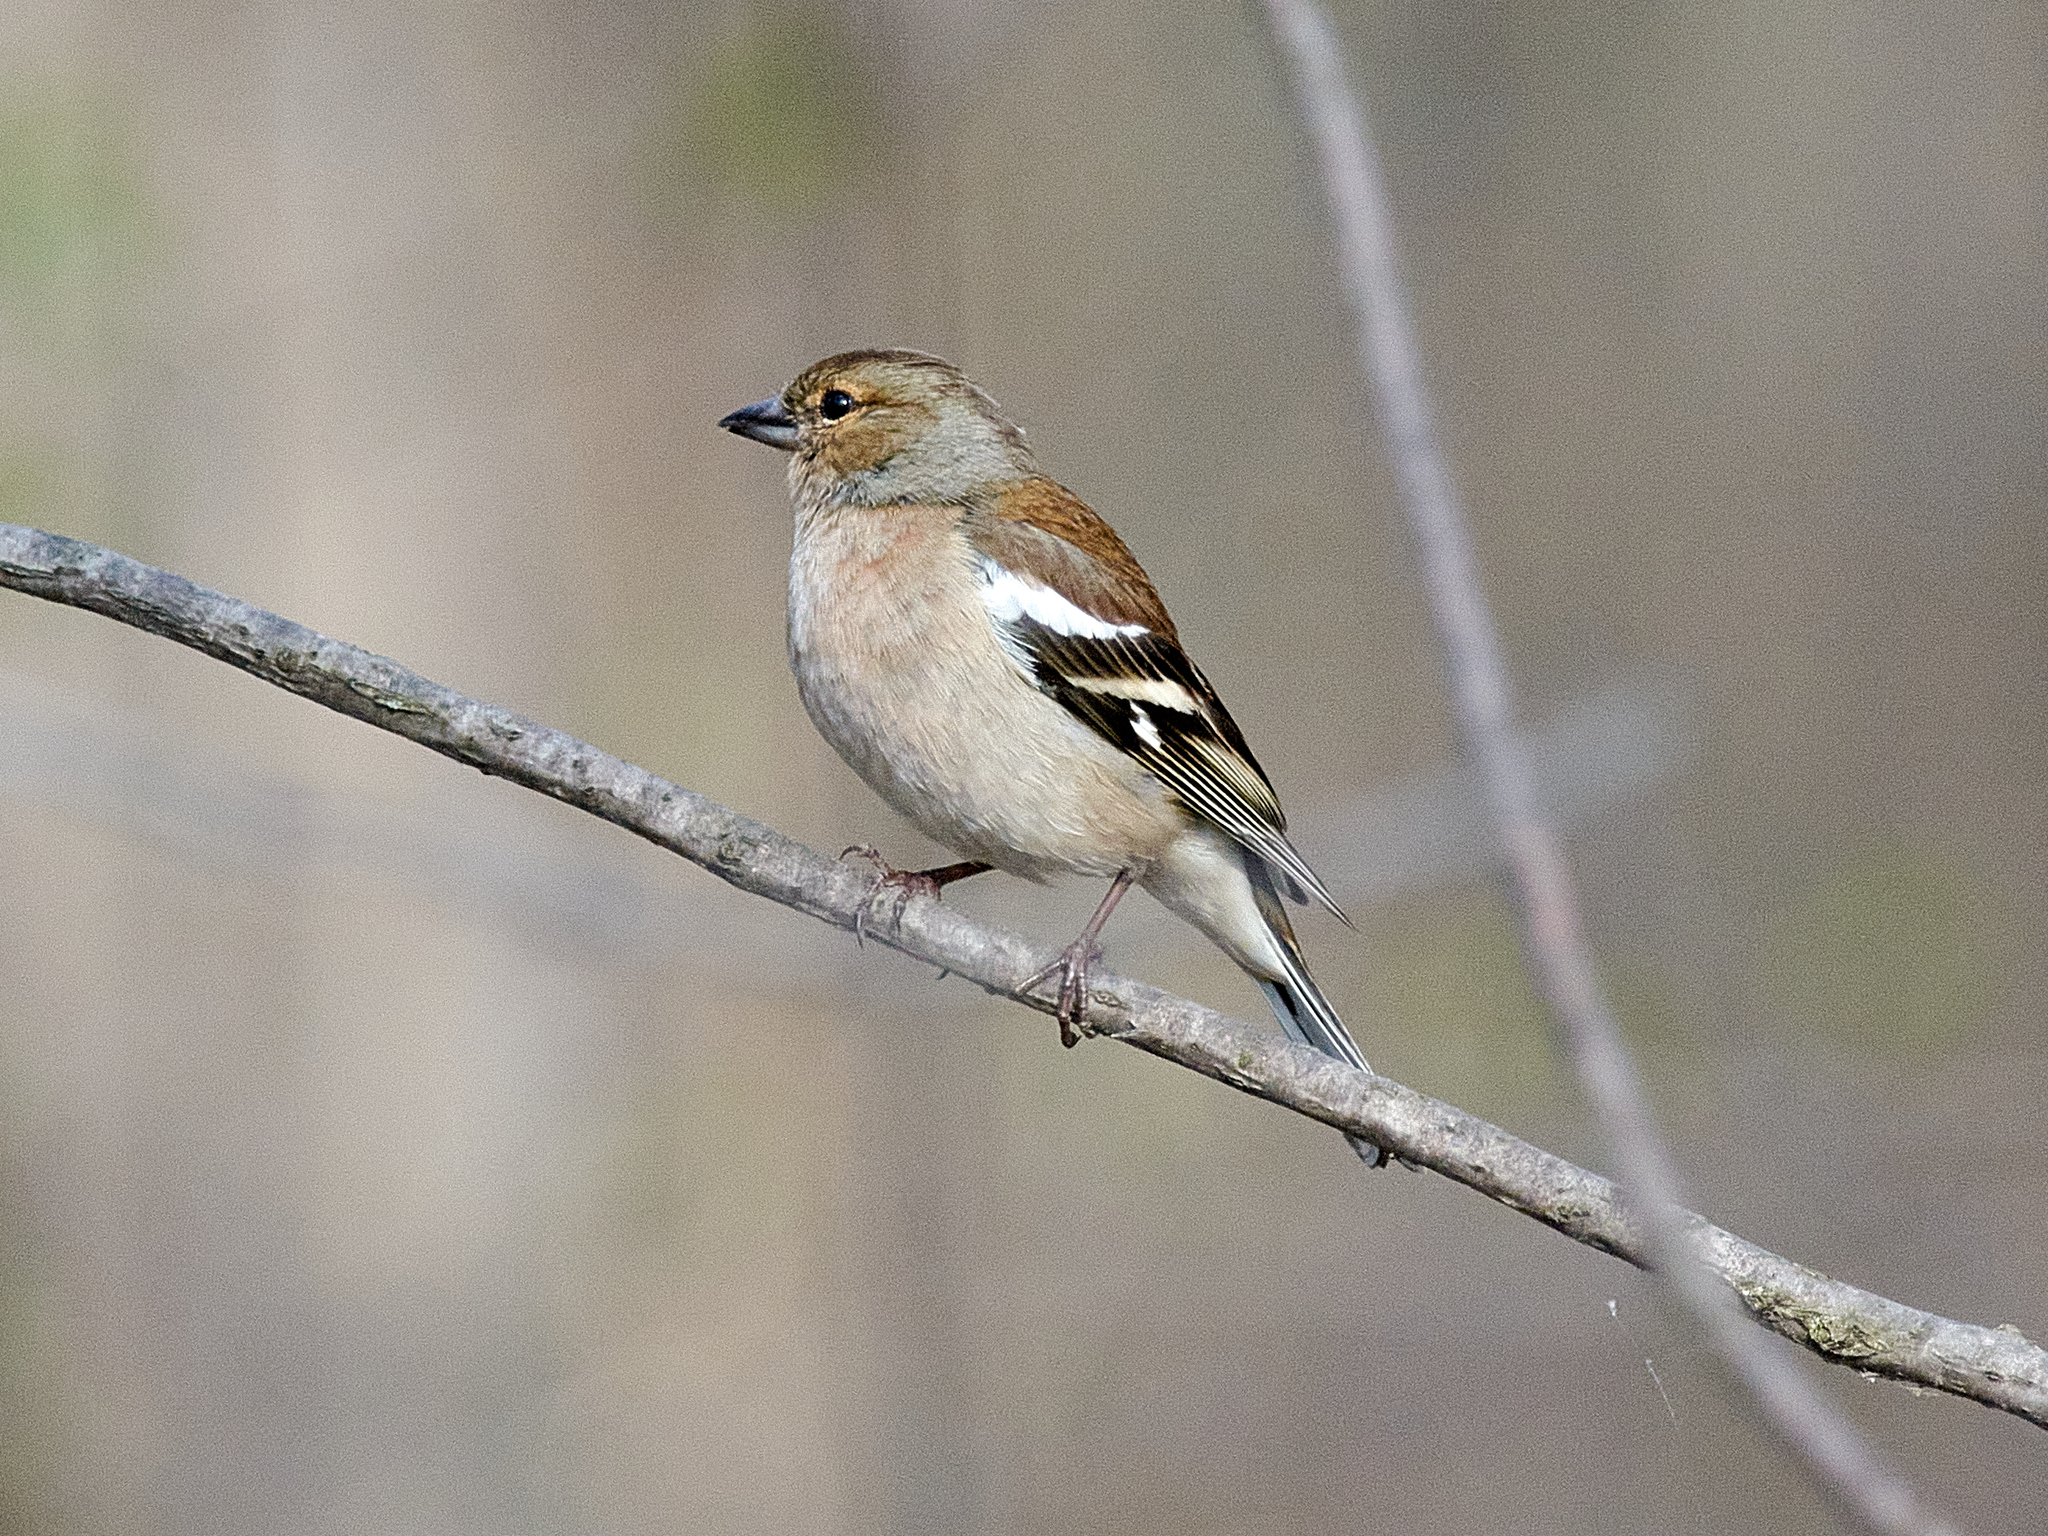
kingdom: Animalia
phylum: Chordata
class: Aves
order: Passeriformes
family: Fringillidae
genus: Fringilla
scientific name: Fringilla coelebs
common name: Common chaffinch
